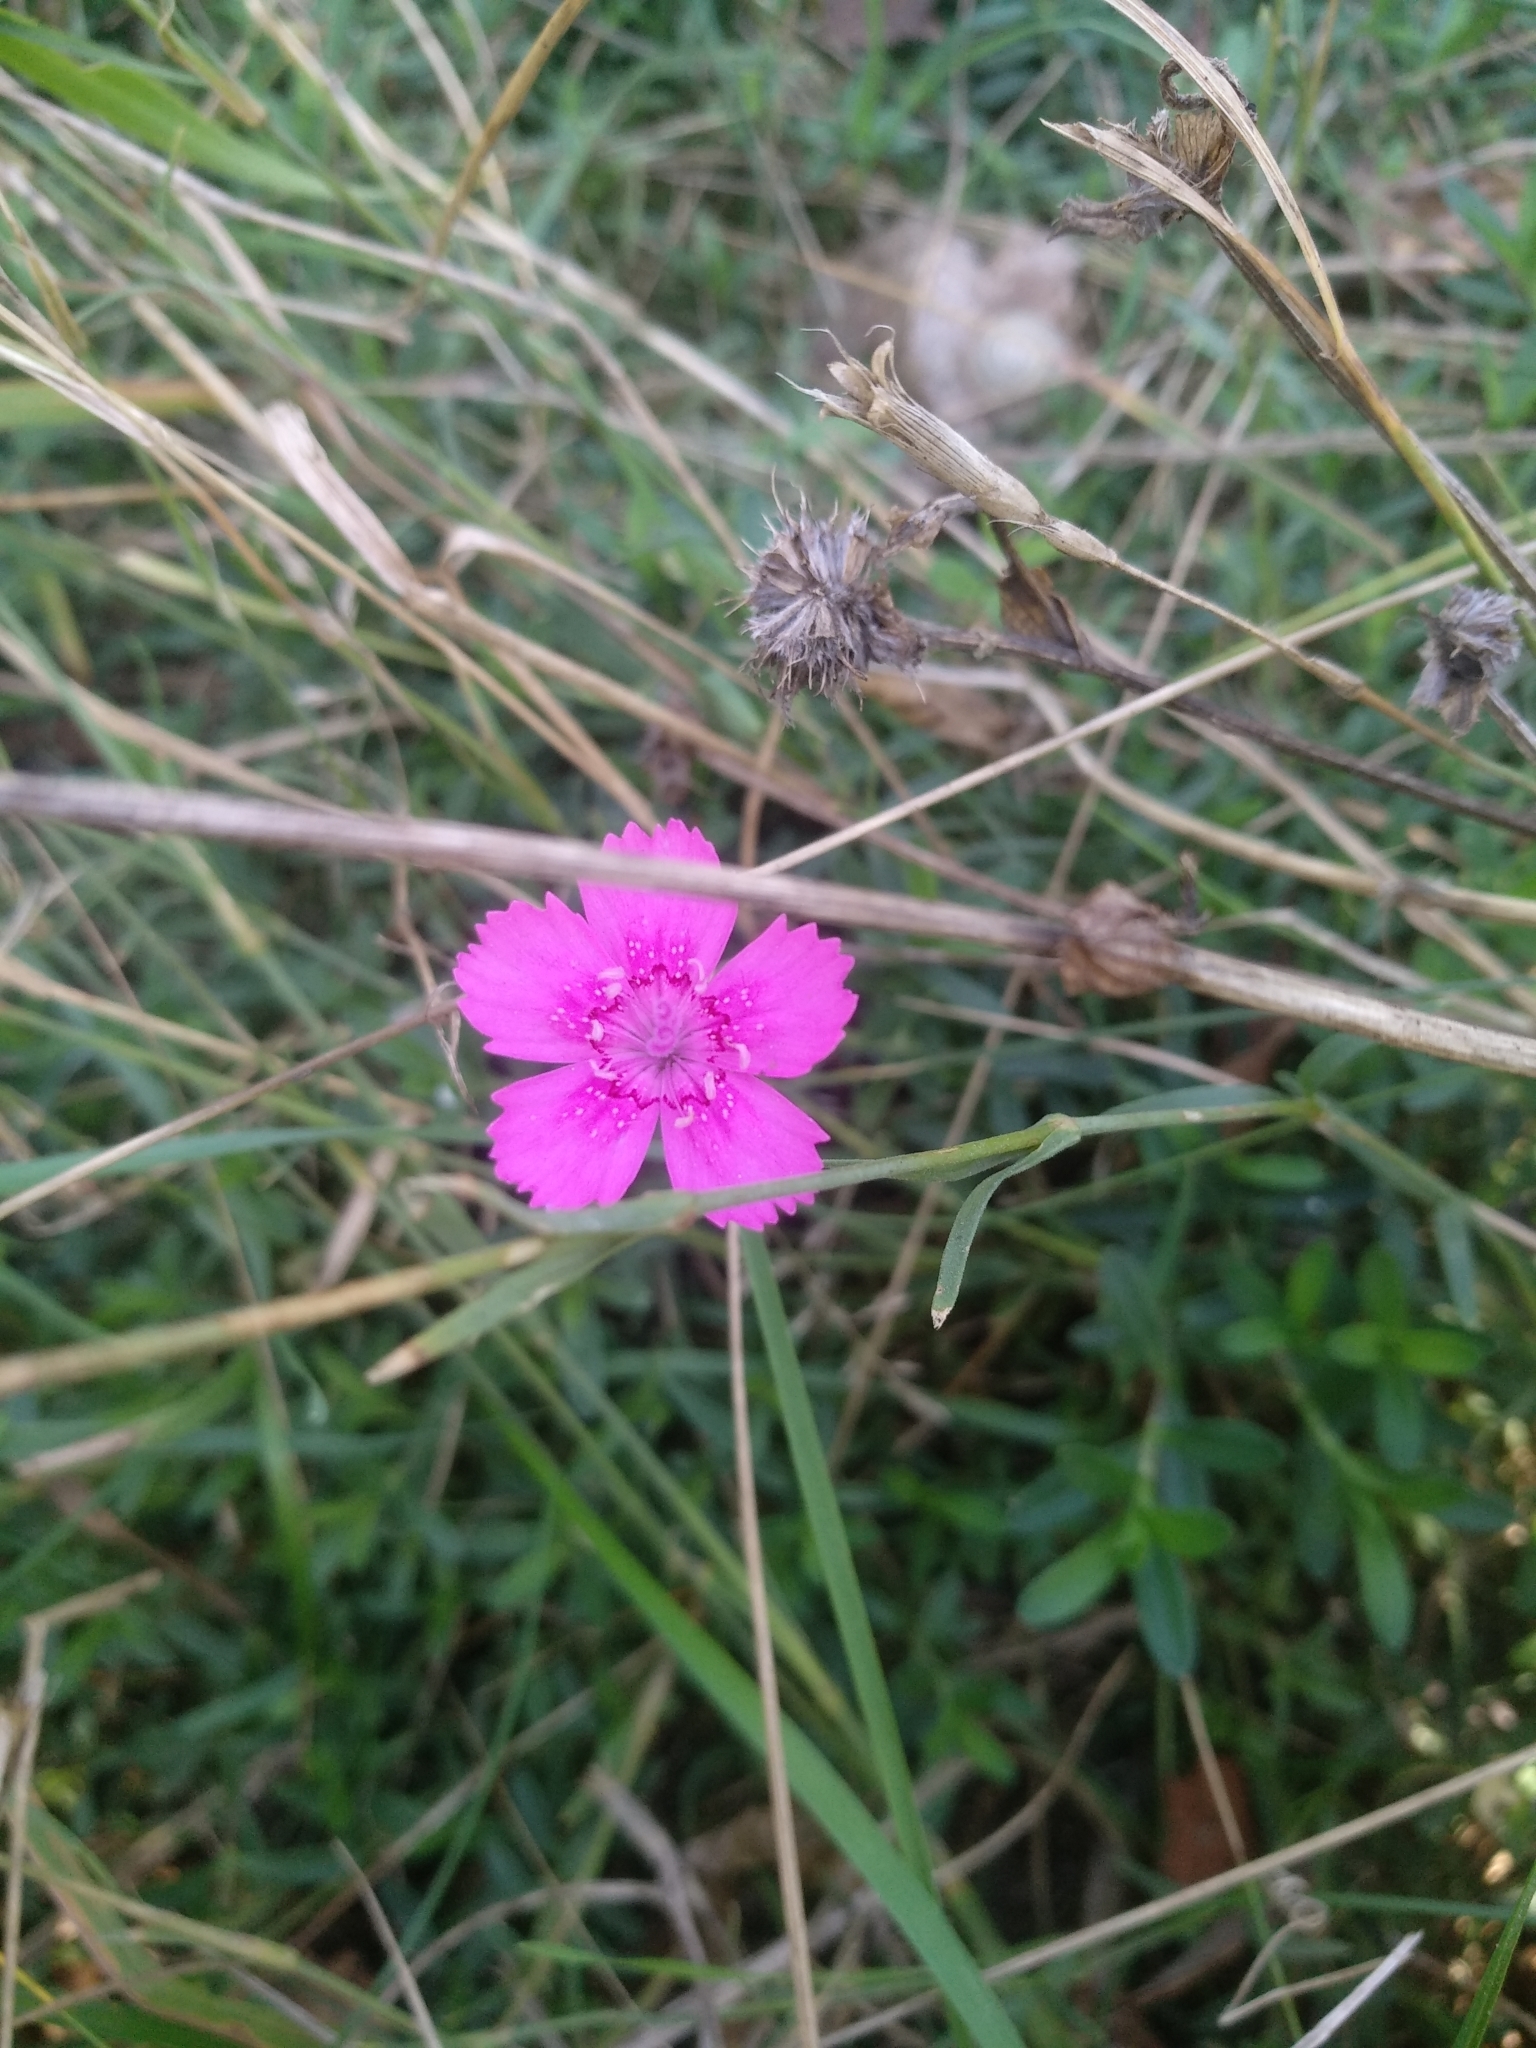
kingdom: Plantae
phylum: Tracheophyta
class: Magnoliopsida
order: Caryophyllales
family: Caryophyllaceae
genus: Dianthus
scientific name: Dianthus deltoides
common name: Maiden pink
